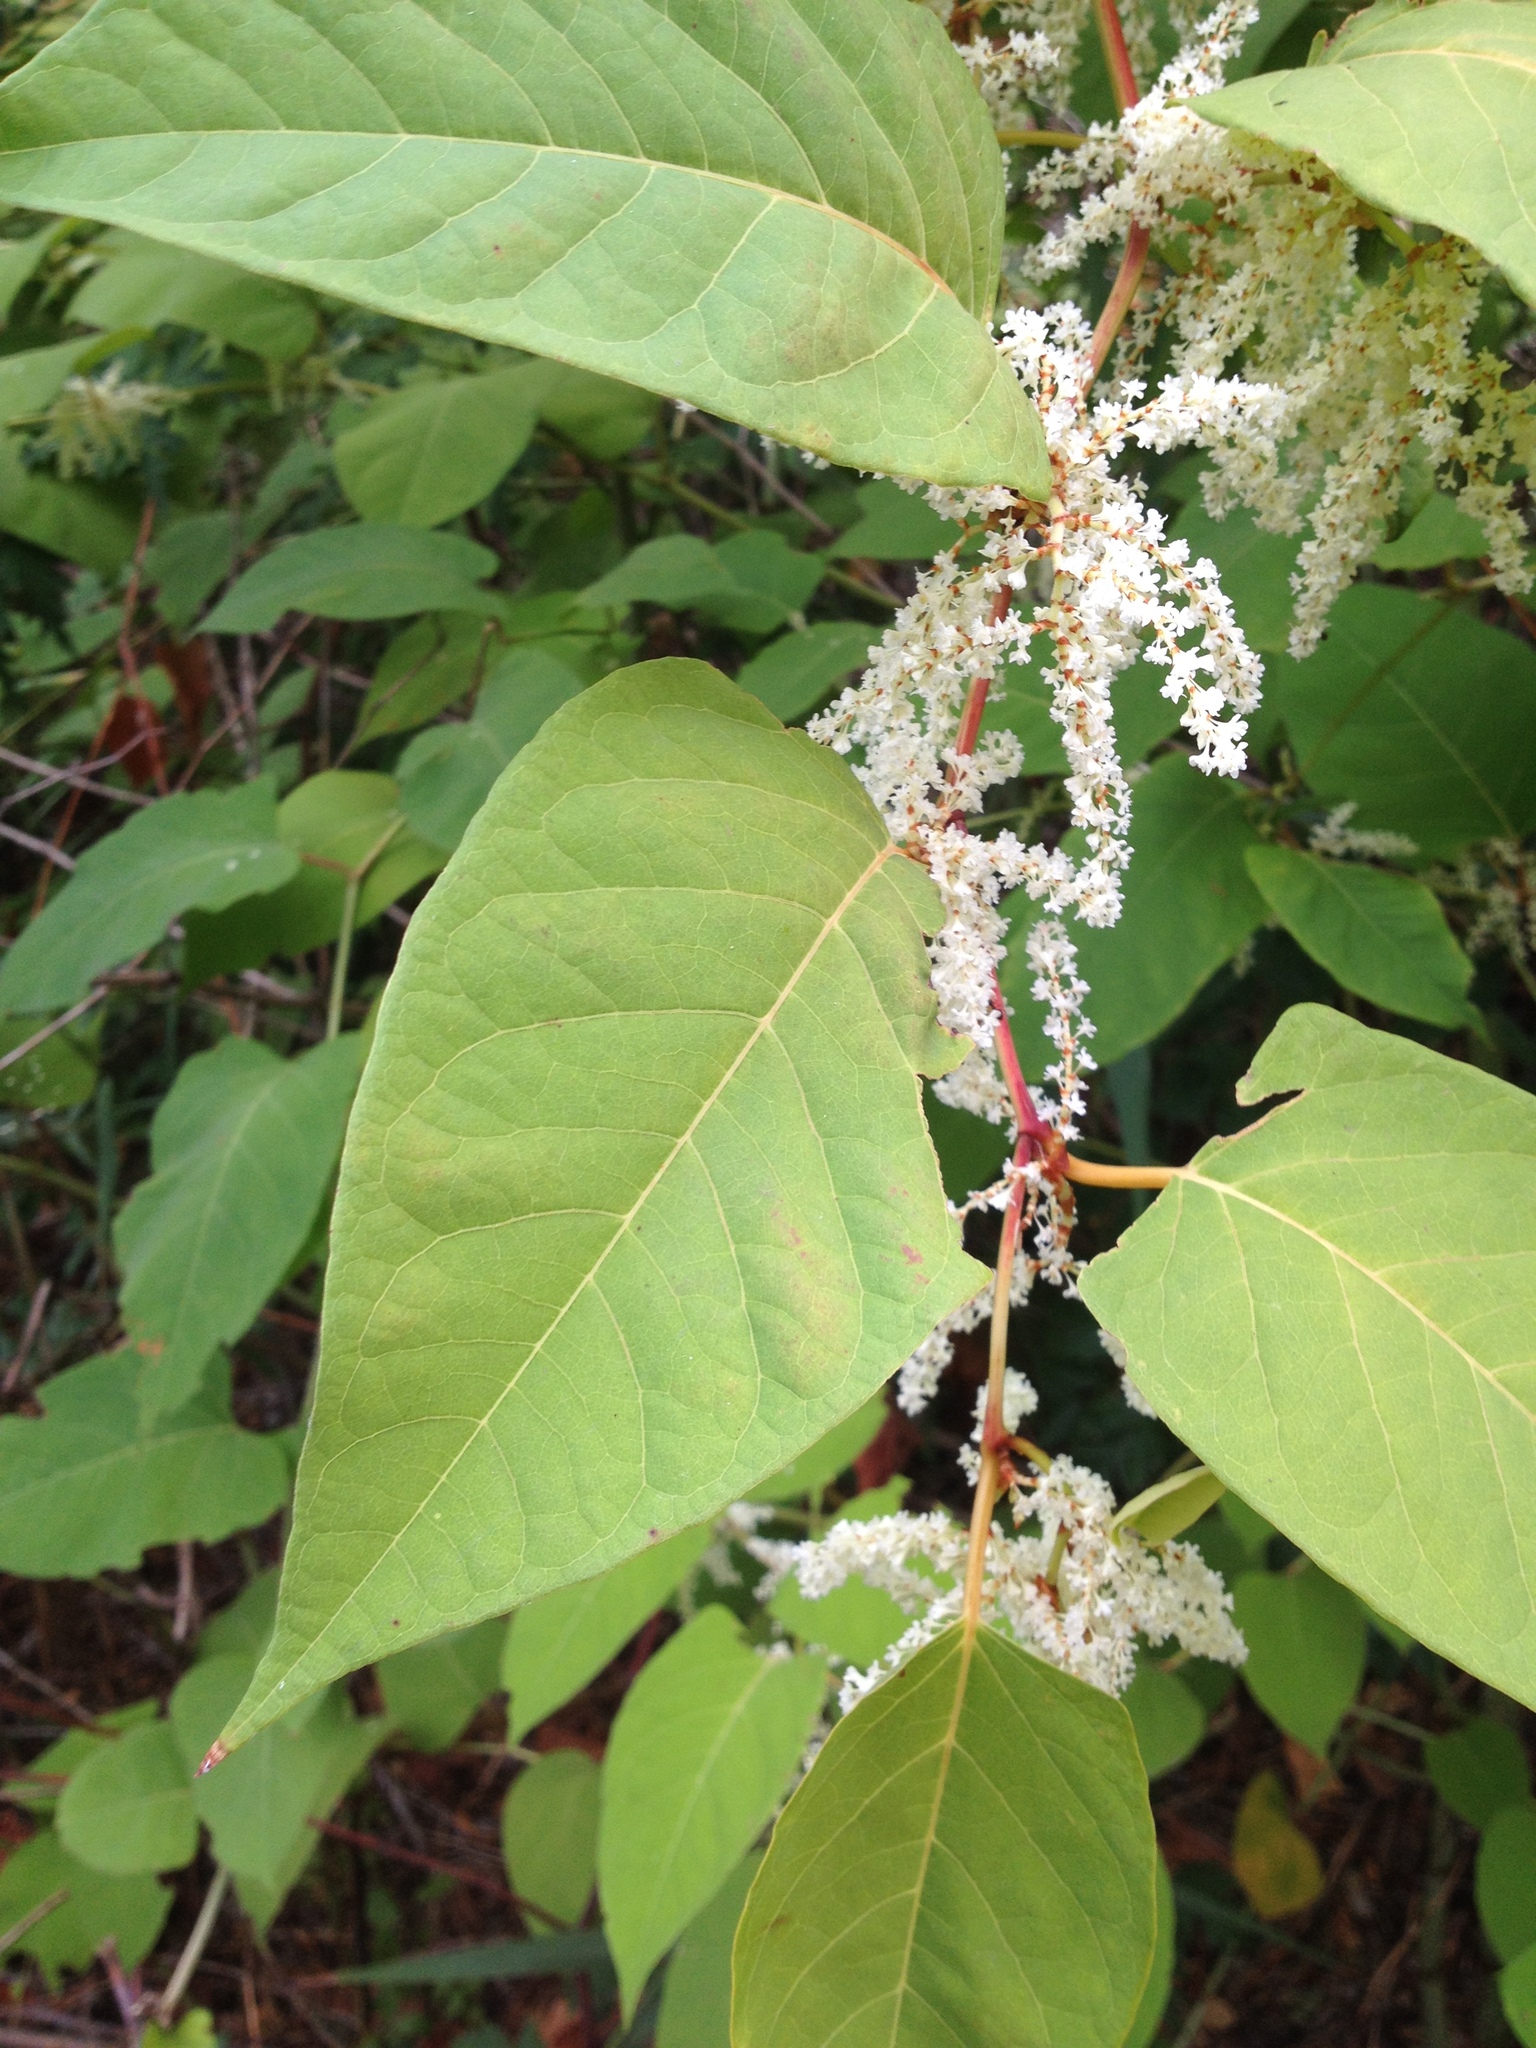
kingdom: Plantae
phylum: Tracheophyta
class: Magnoliopsida
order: Caryophyllales
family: Polygonaceae
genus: Reynoutria
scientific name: Reynoutria japonica
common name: Japanese knotweed
